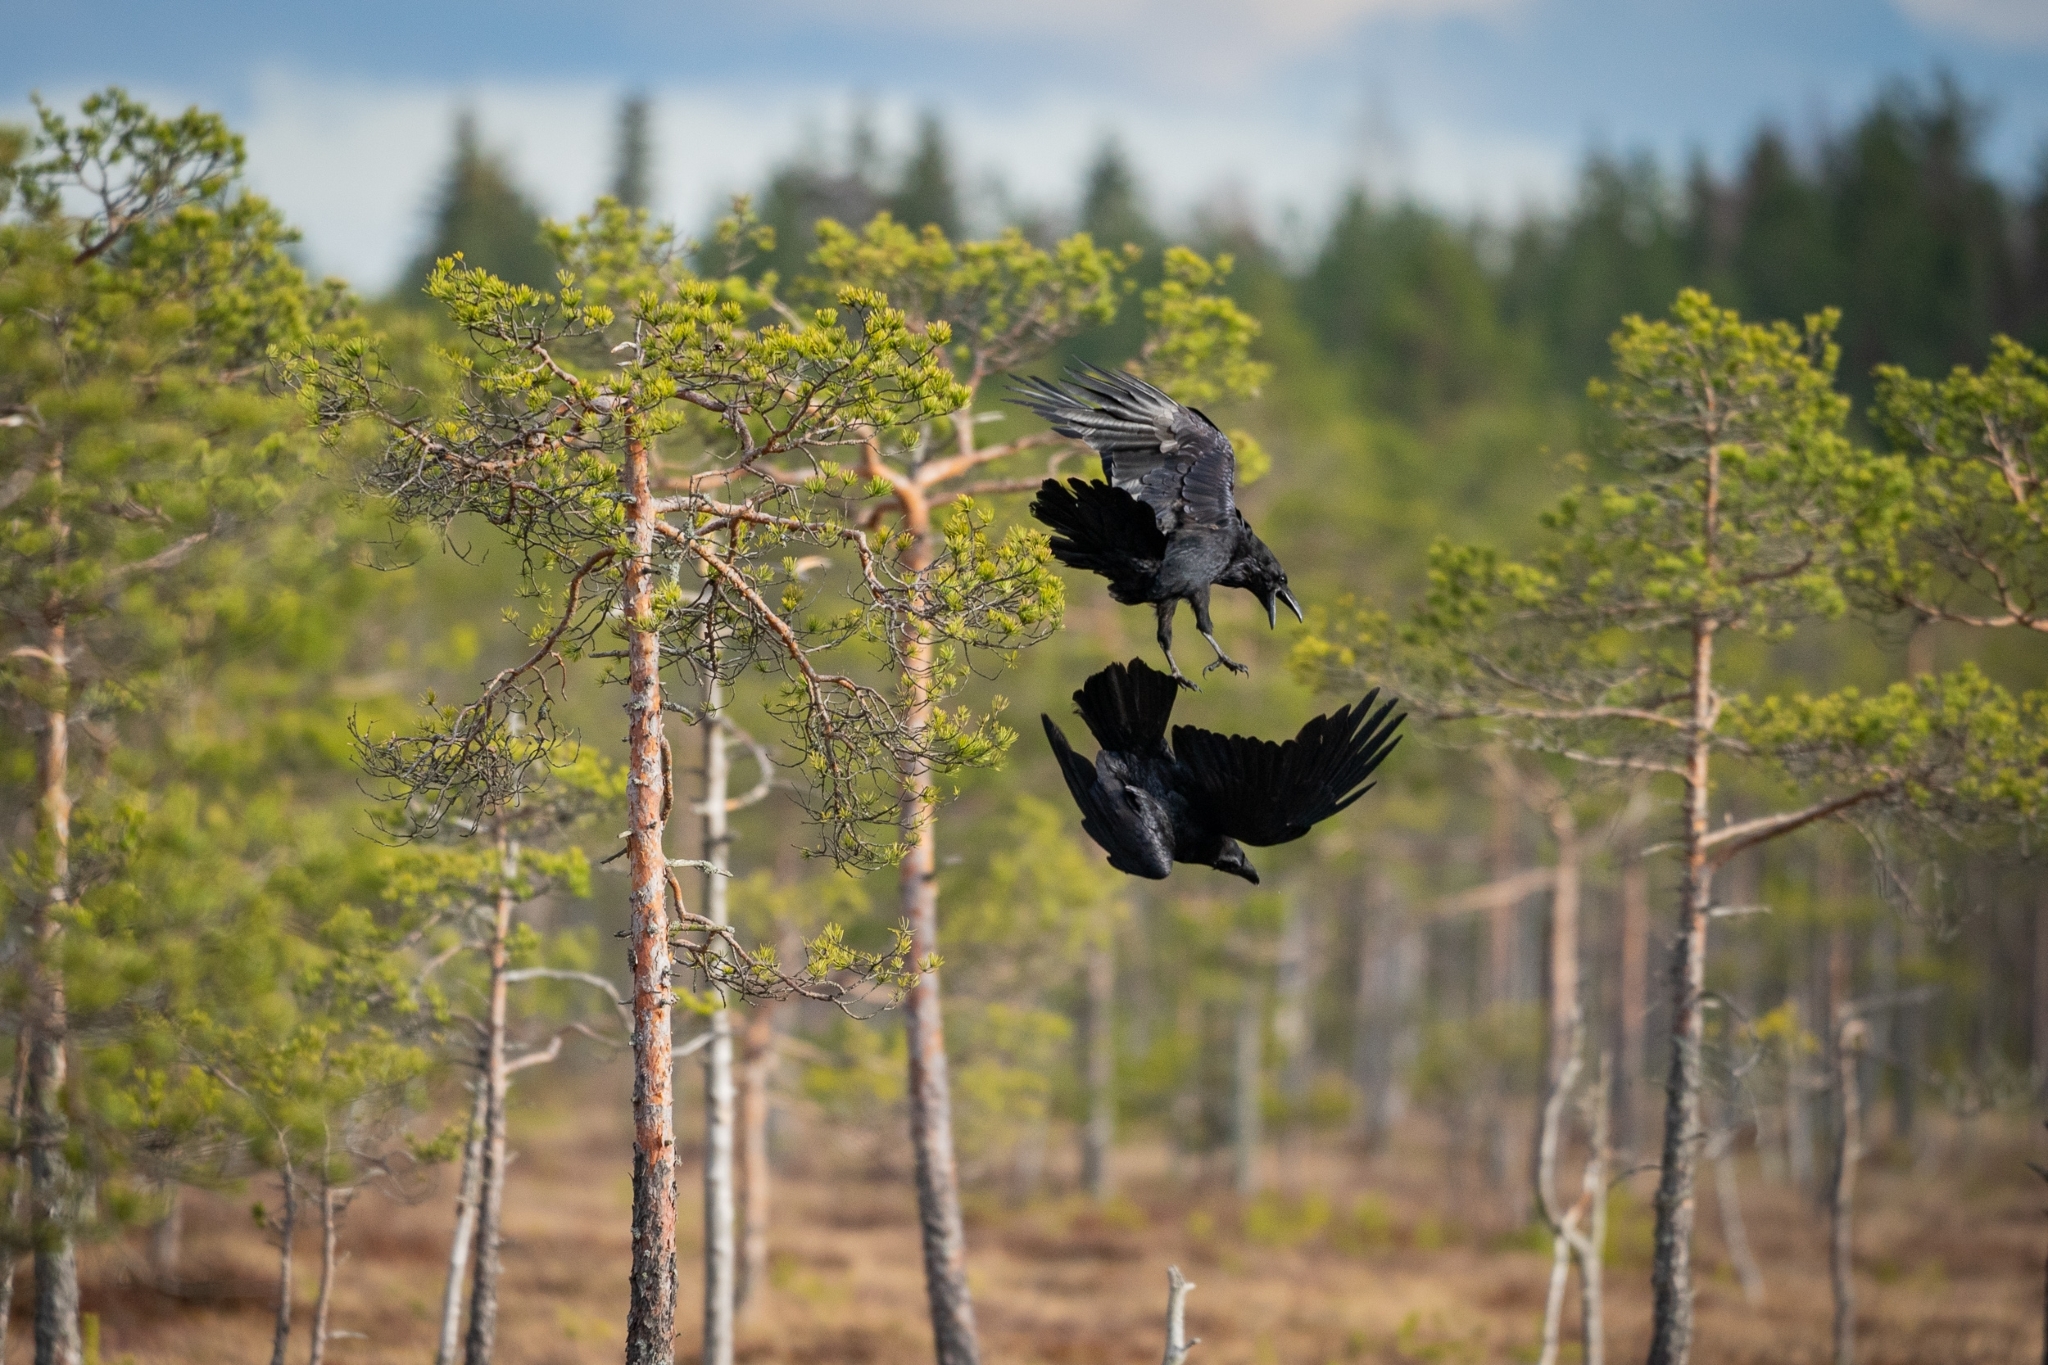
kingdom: Animalia
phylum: Chordata
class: Aves
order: Passeriformes
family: Corvidae
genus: Corvus
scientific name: Corvus corax
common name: Common raven
